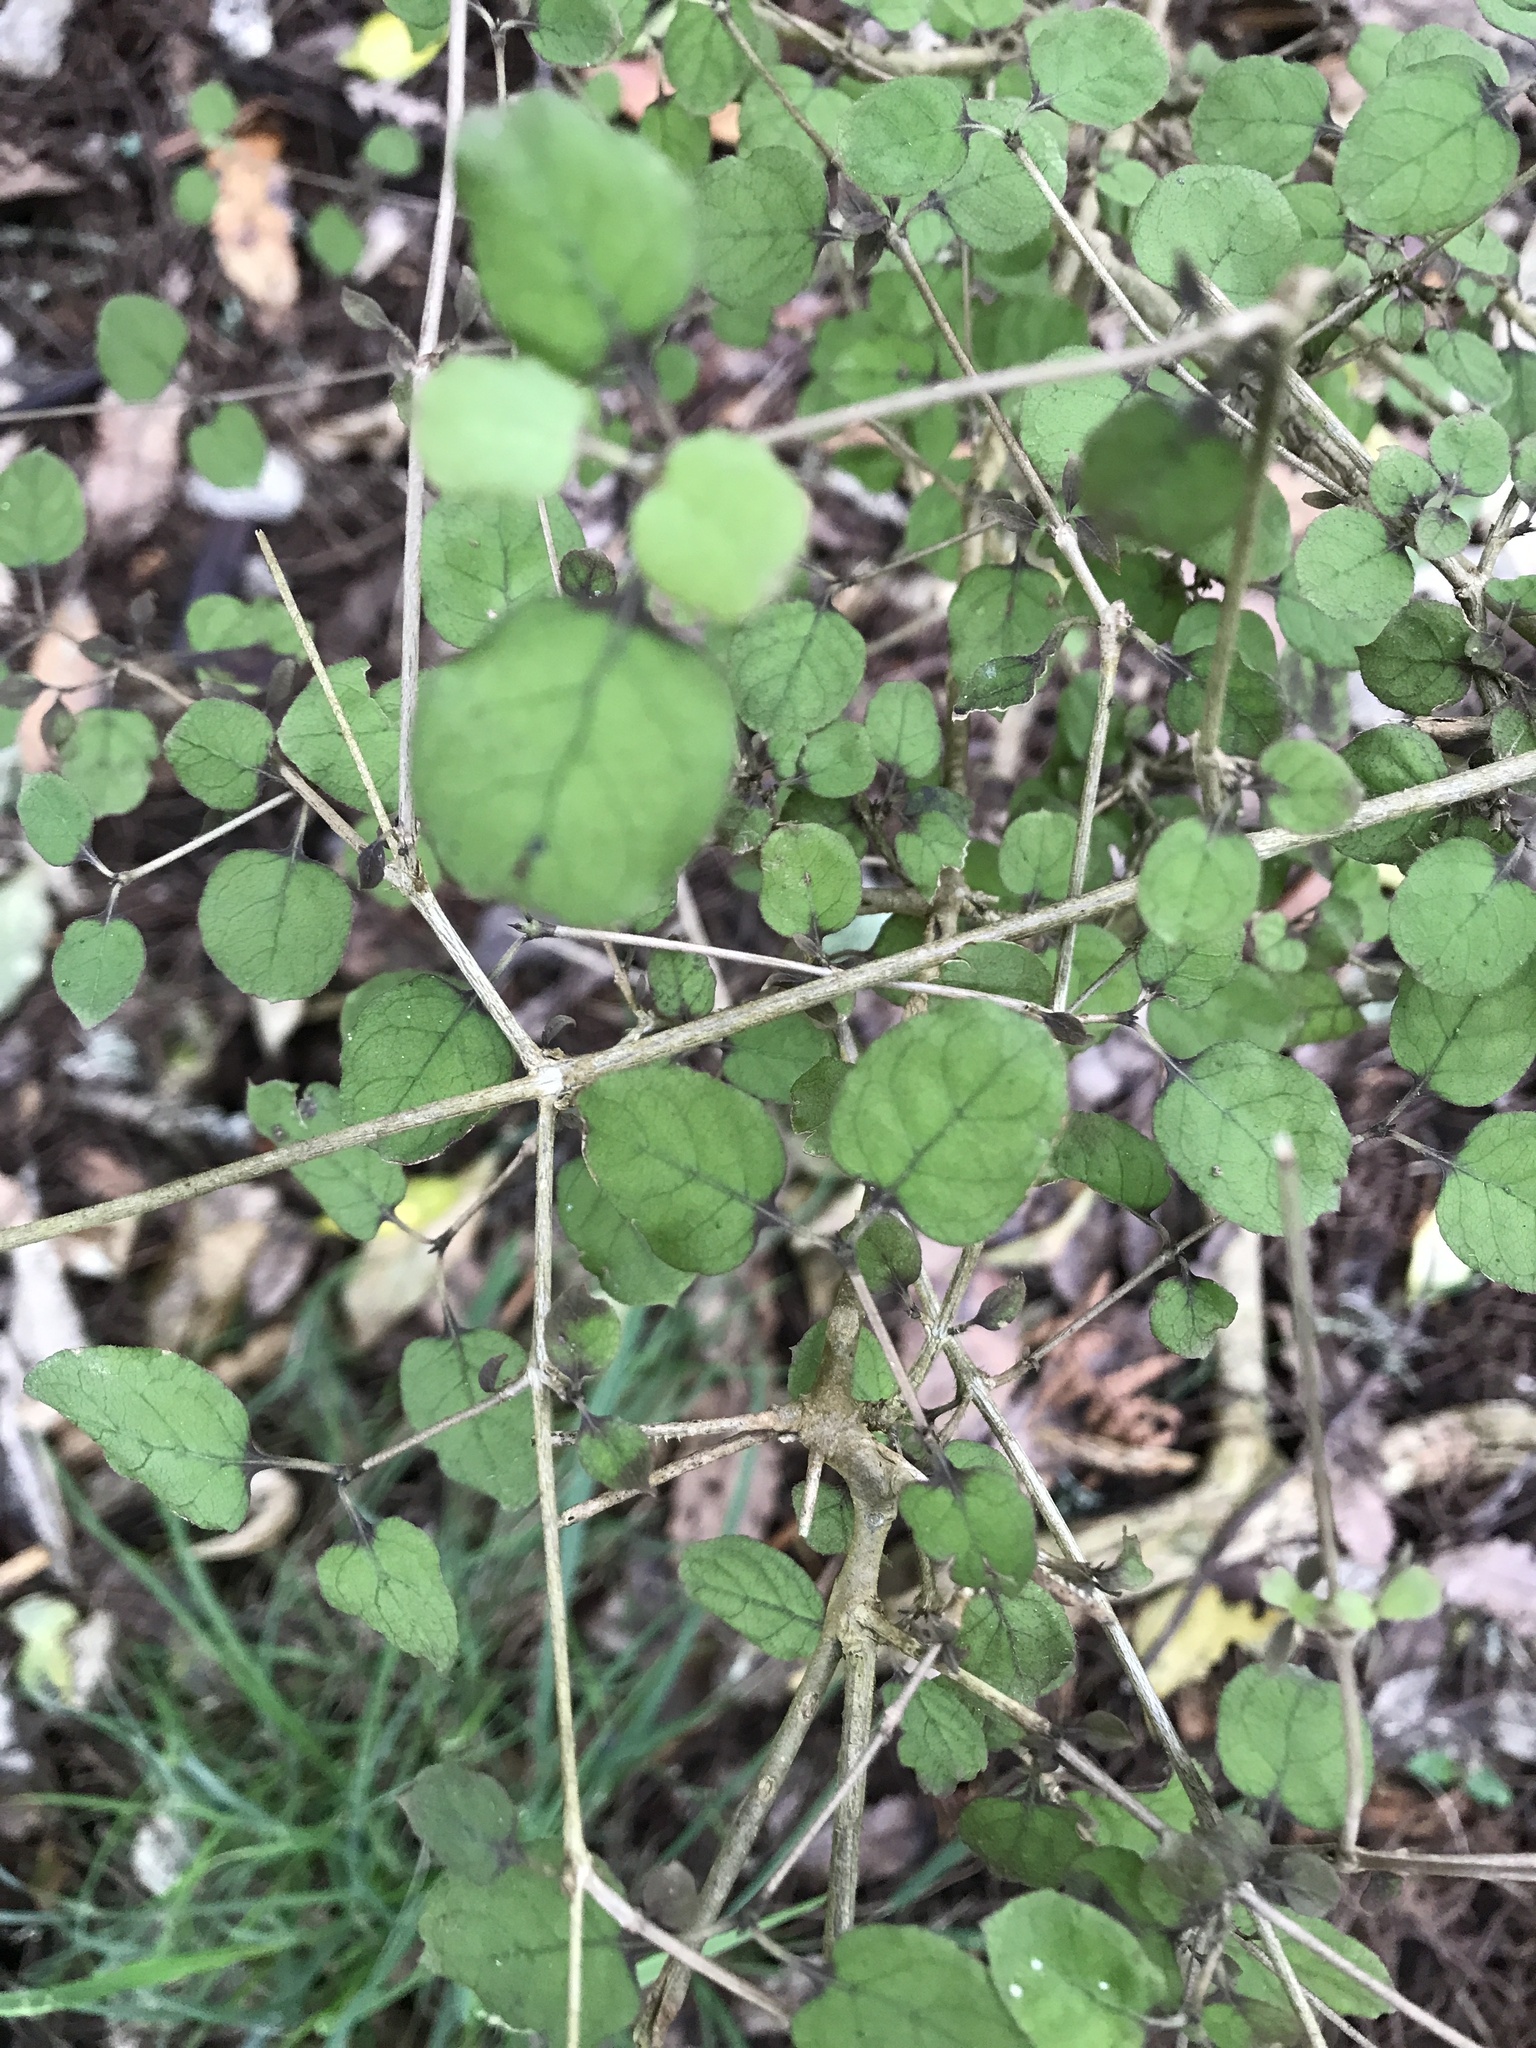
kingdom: Plantae
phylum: Tracheophyta
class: Magnoliopsida
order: Gentianales
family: Rubiaceae
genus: Coprosma
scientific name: Coprosma rotundifolia
